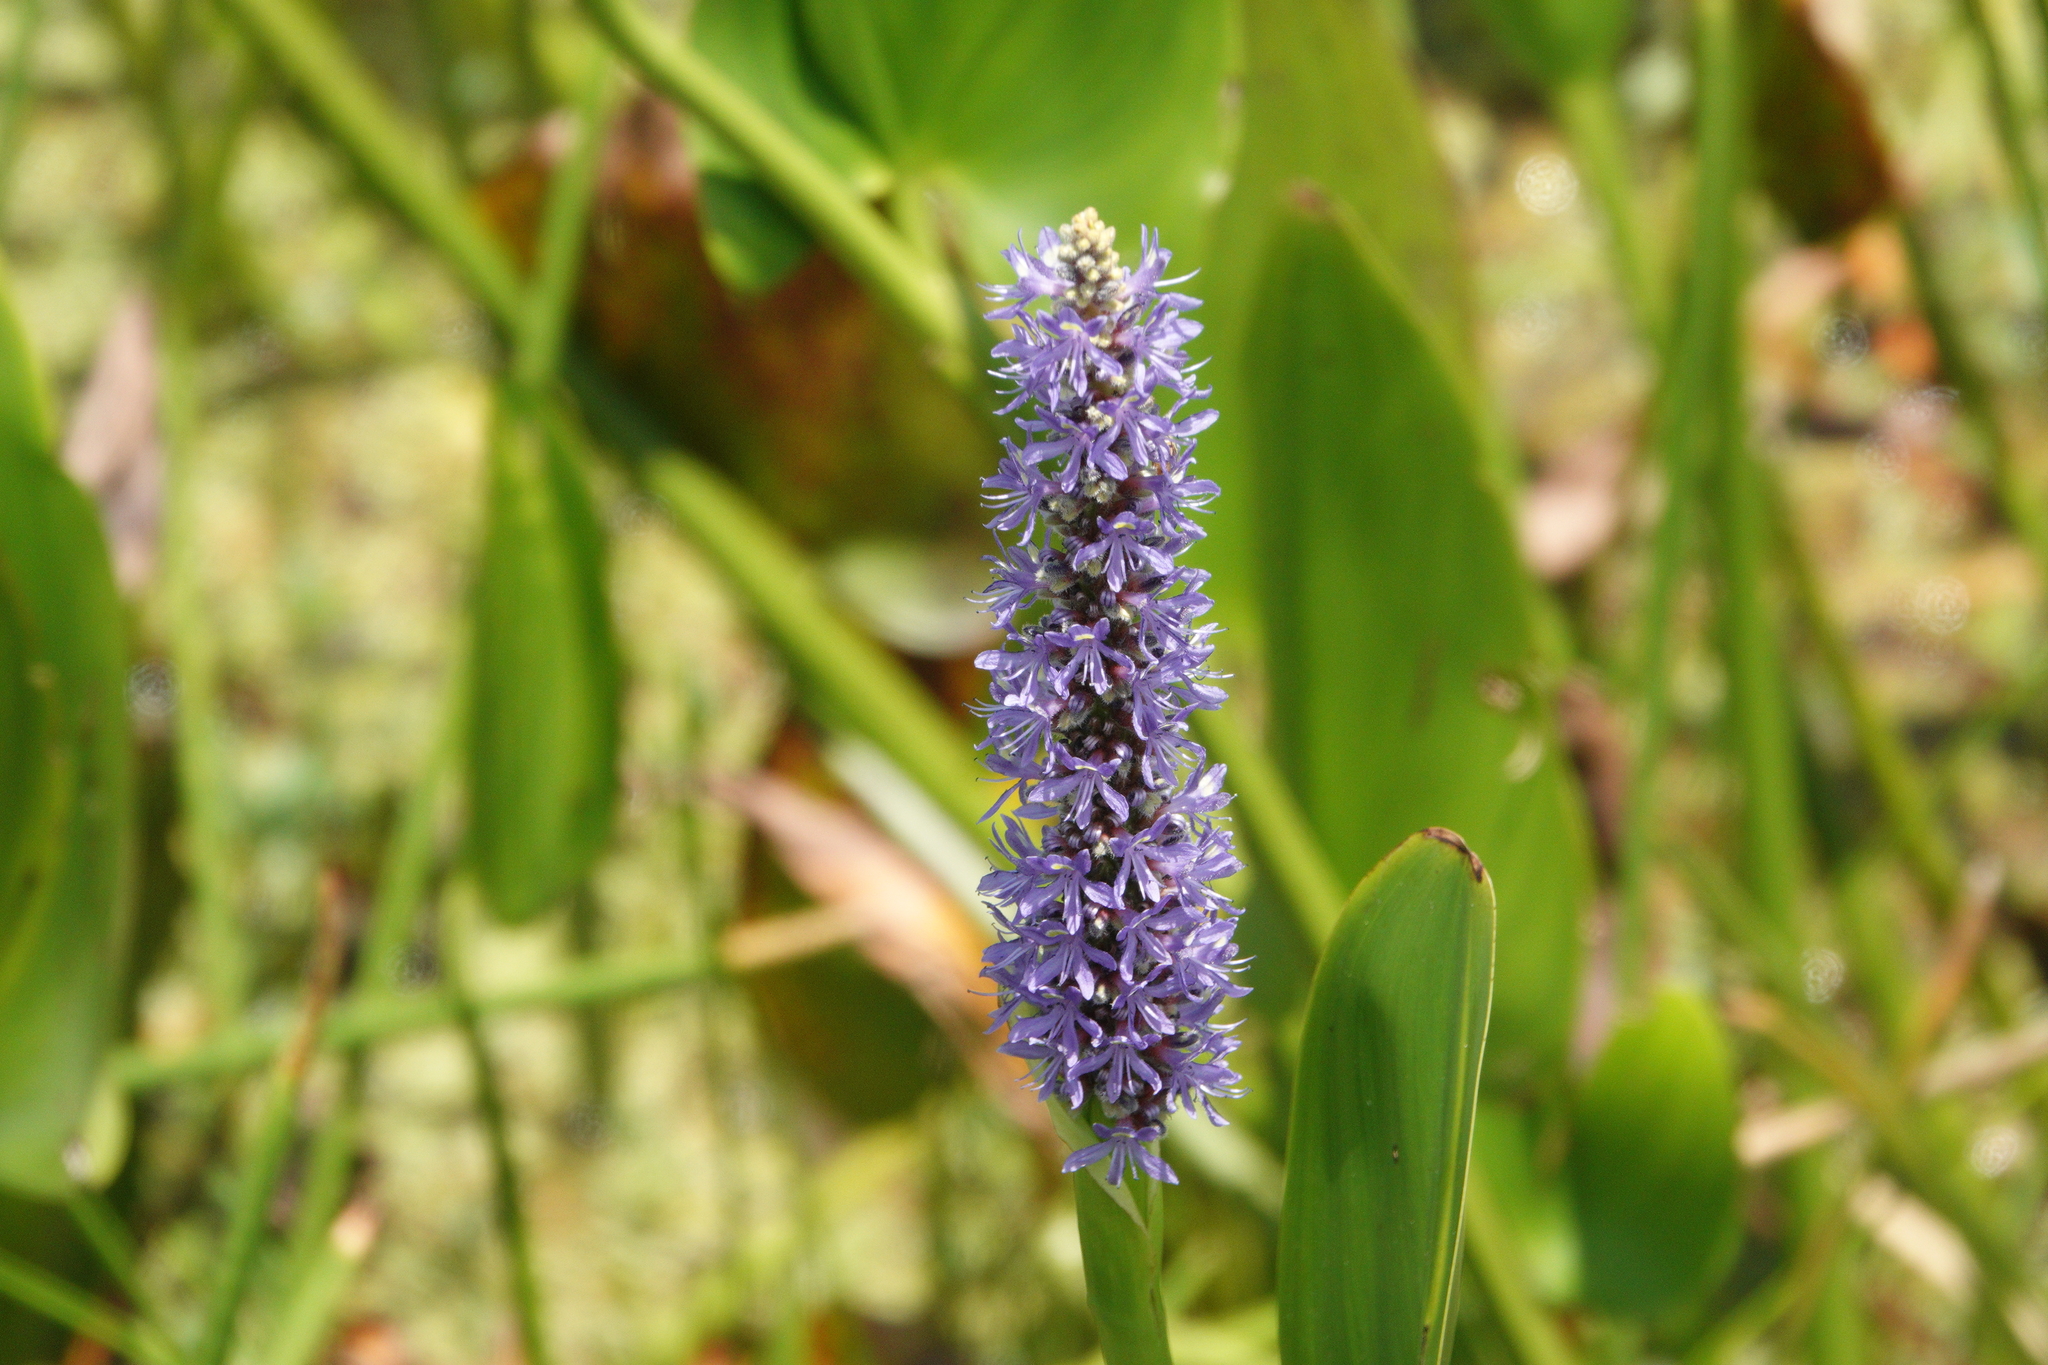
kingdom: Plantae
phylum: Tracheophyta
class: Liliopsida
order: Commelinales
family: Pontederiaceae
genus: Pontederia
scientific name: Pontederia cordata
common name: Pickerelweed
